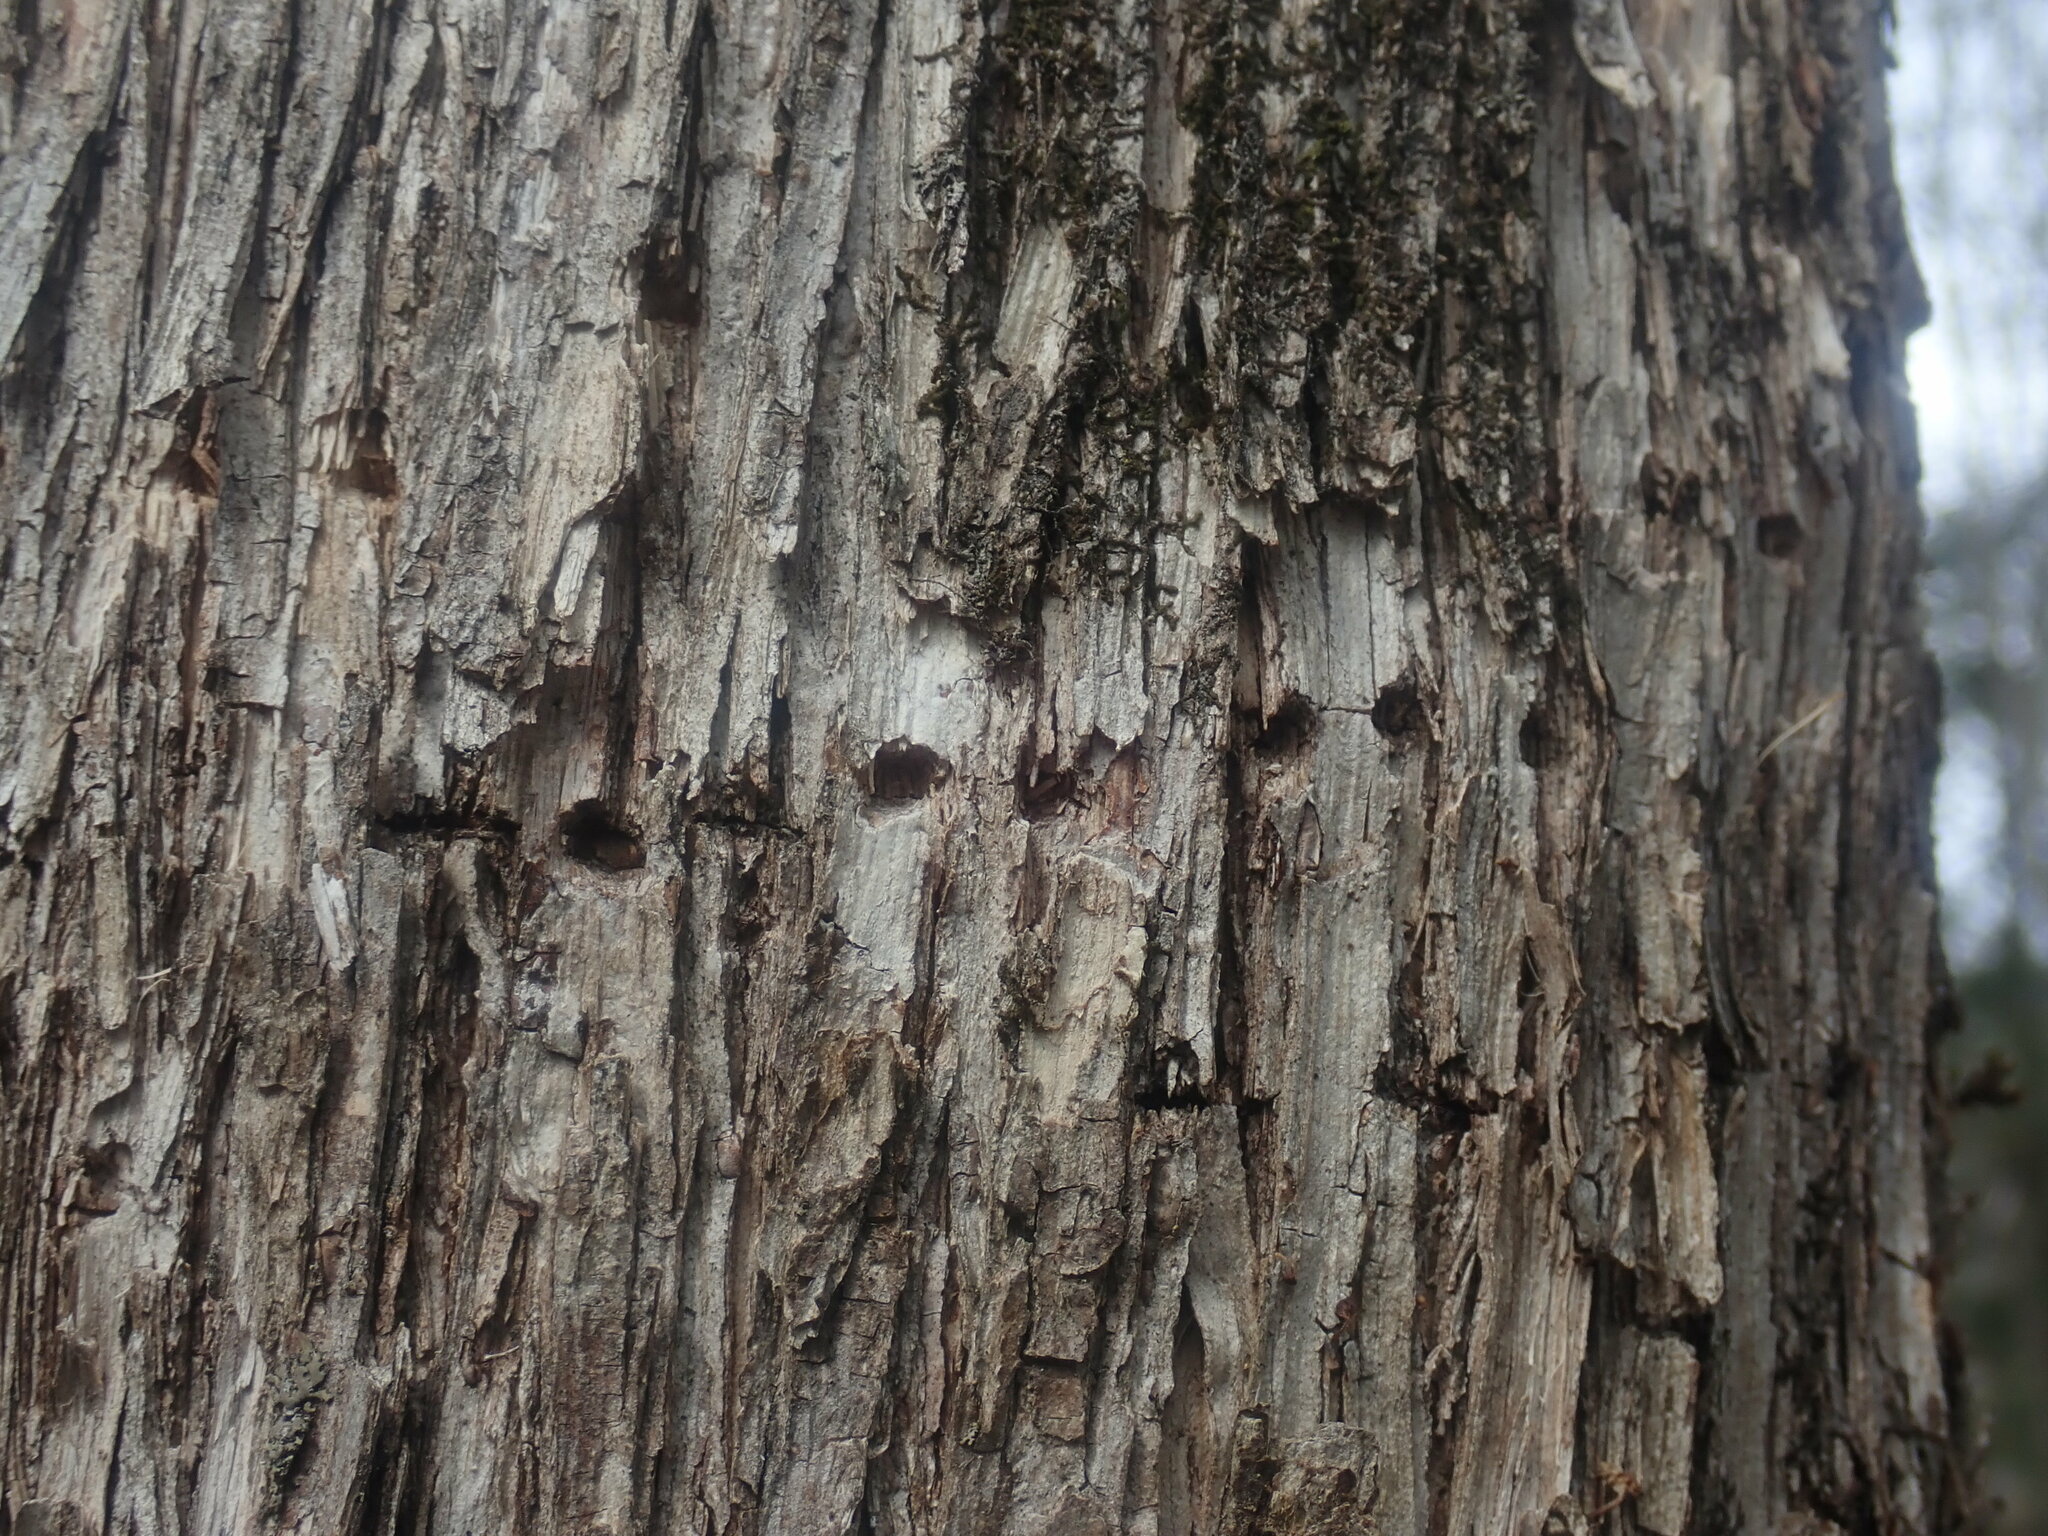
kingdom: Animalia
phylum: Chordata
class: Aves
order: Piciformes
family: Picidae
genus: Sphyrapicus
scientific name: Sphyrapicus varius
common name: Yellow-bellied sapsucker
